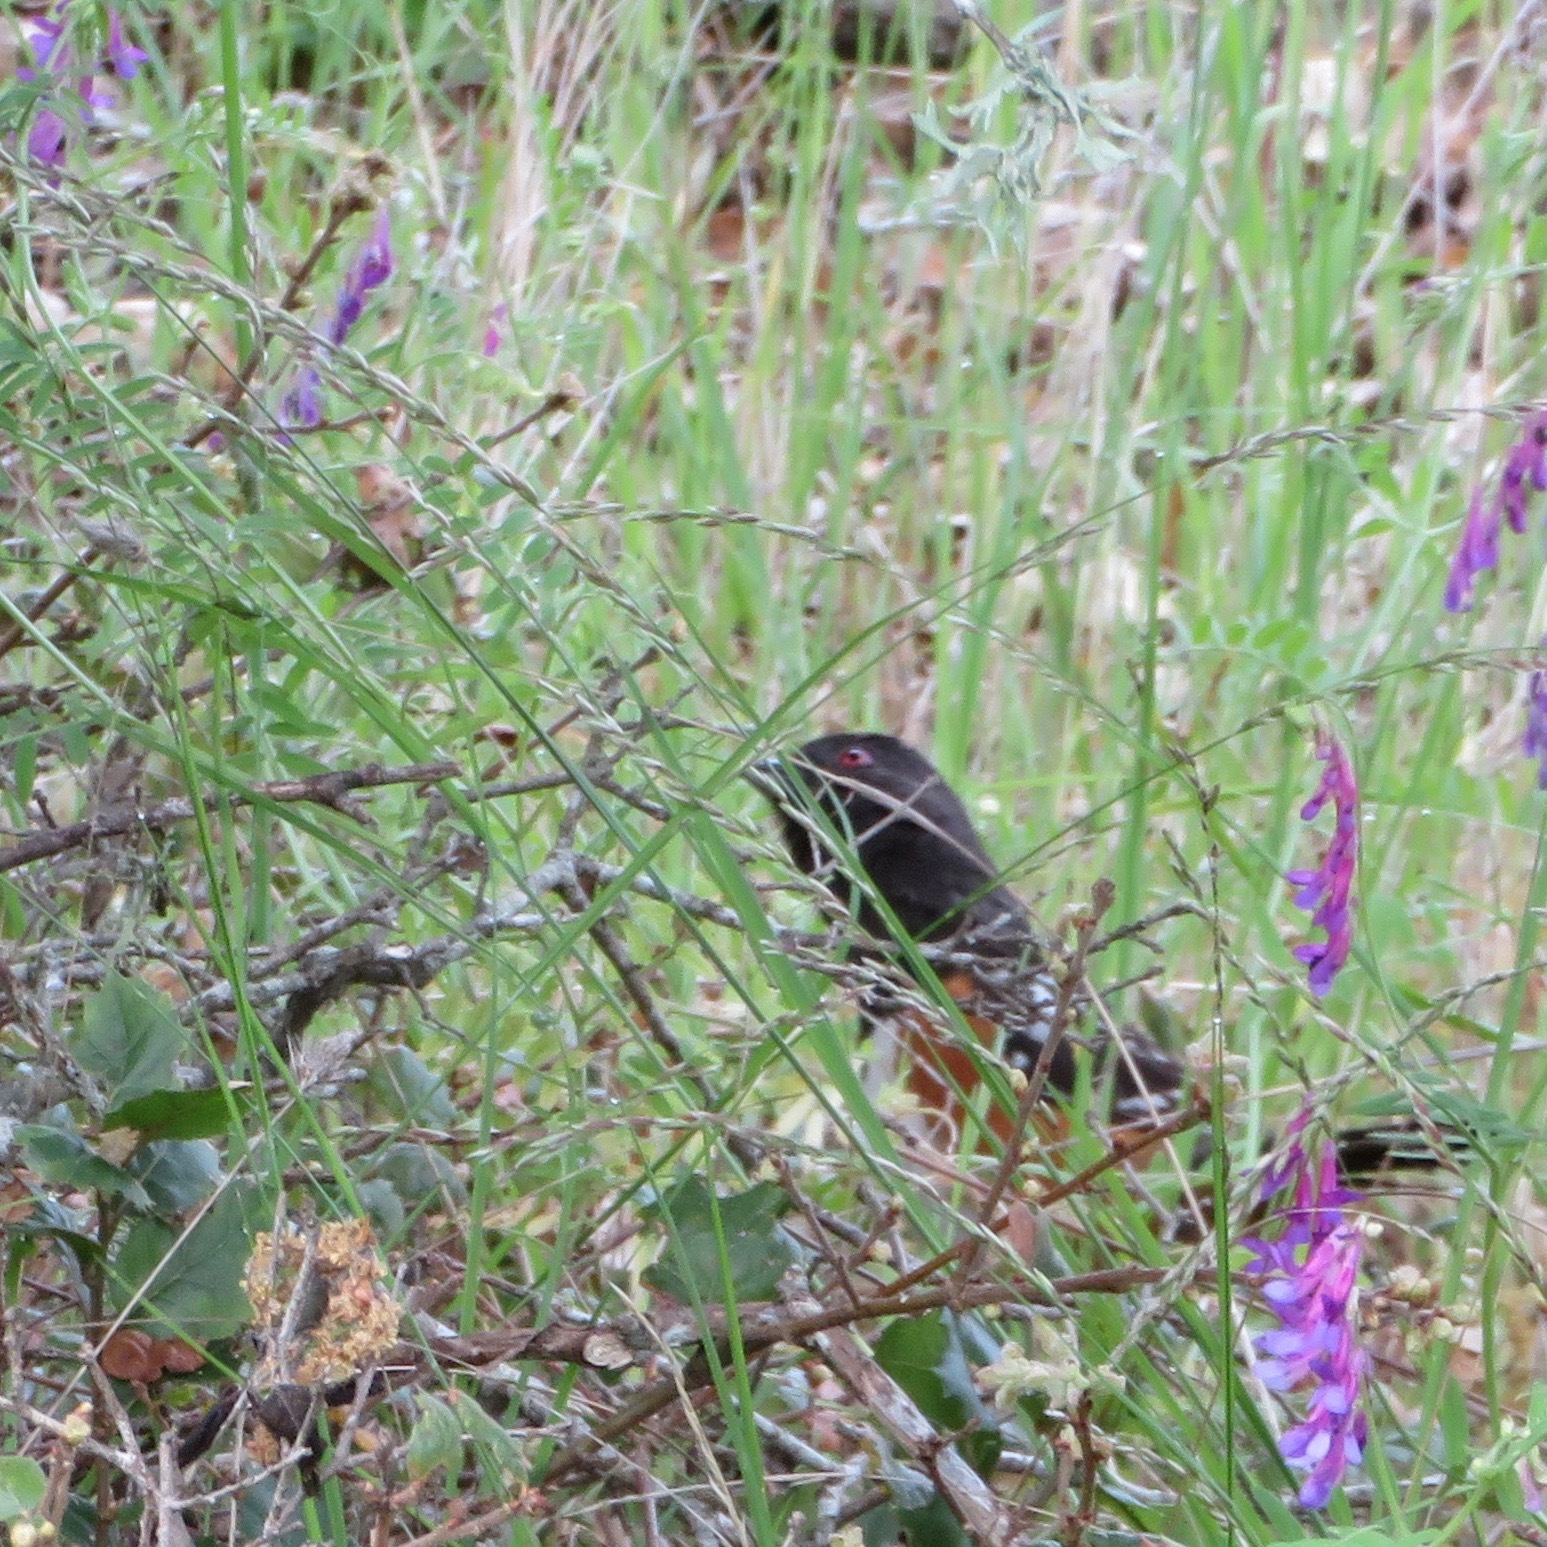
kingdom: Animalia
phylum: Chordata
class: Aves
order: Passeriformes
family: Passerellidae
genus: Pipilo
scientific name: Pipilo maculatus
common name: Spotted towhee
